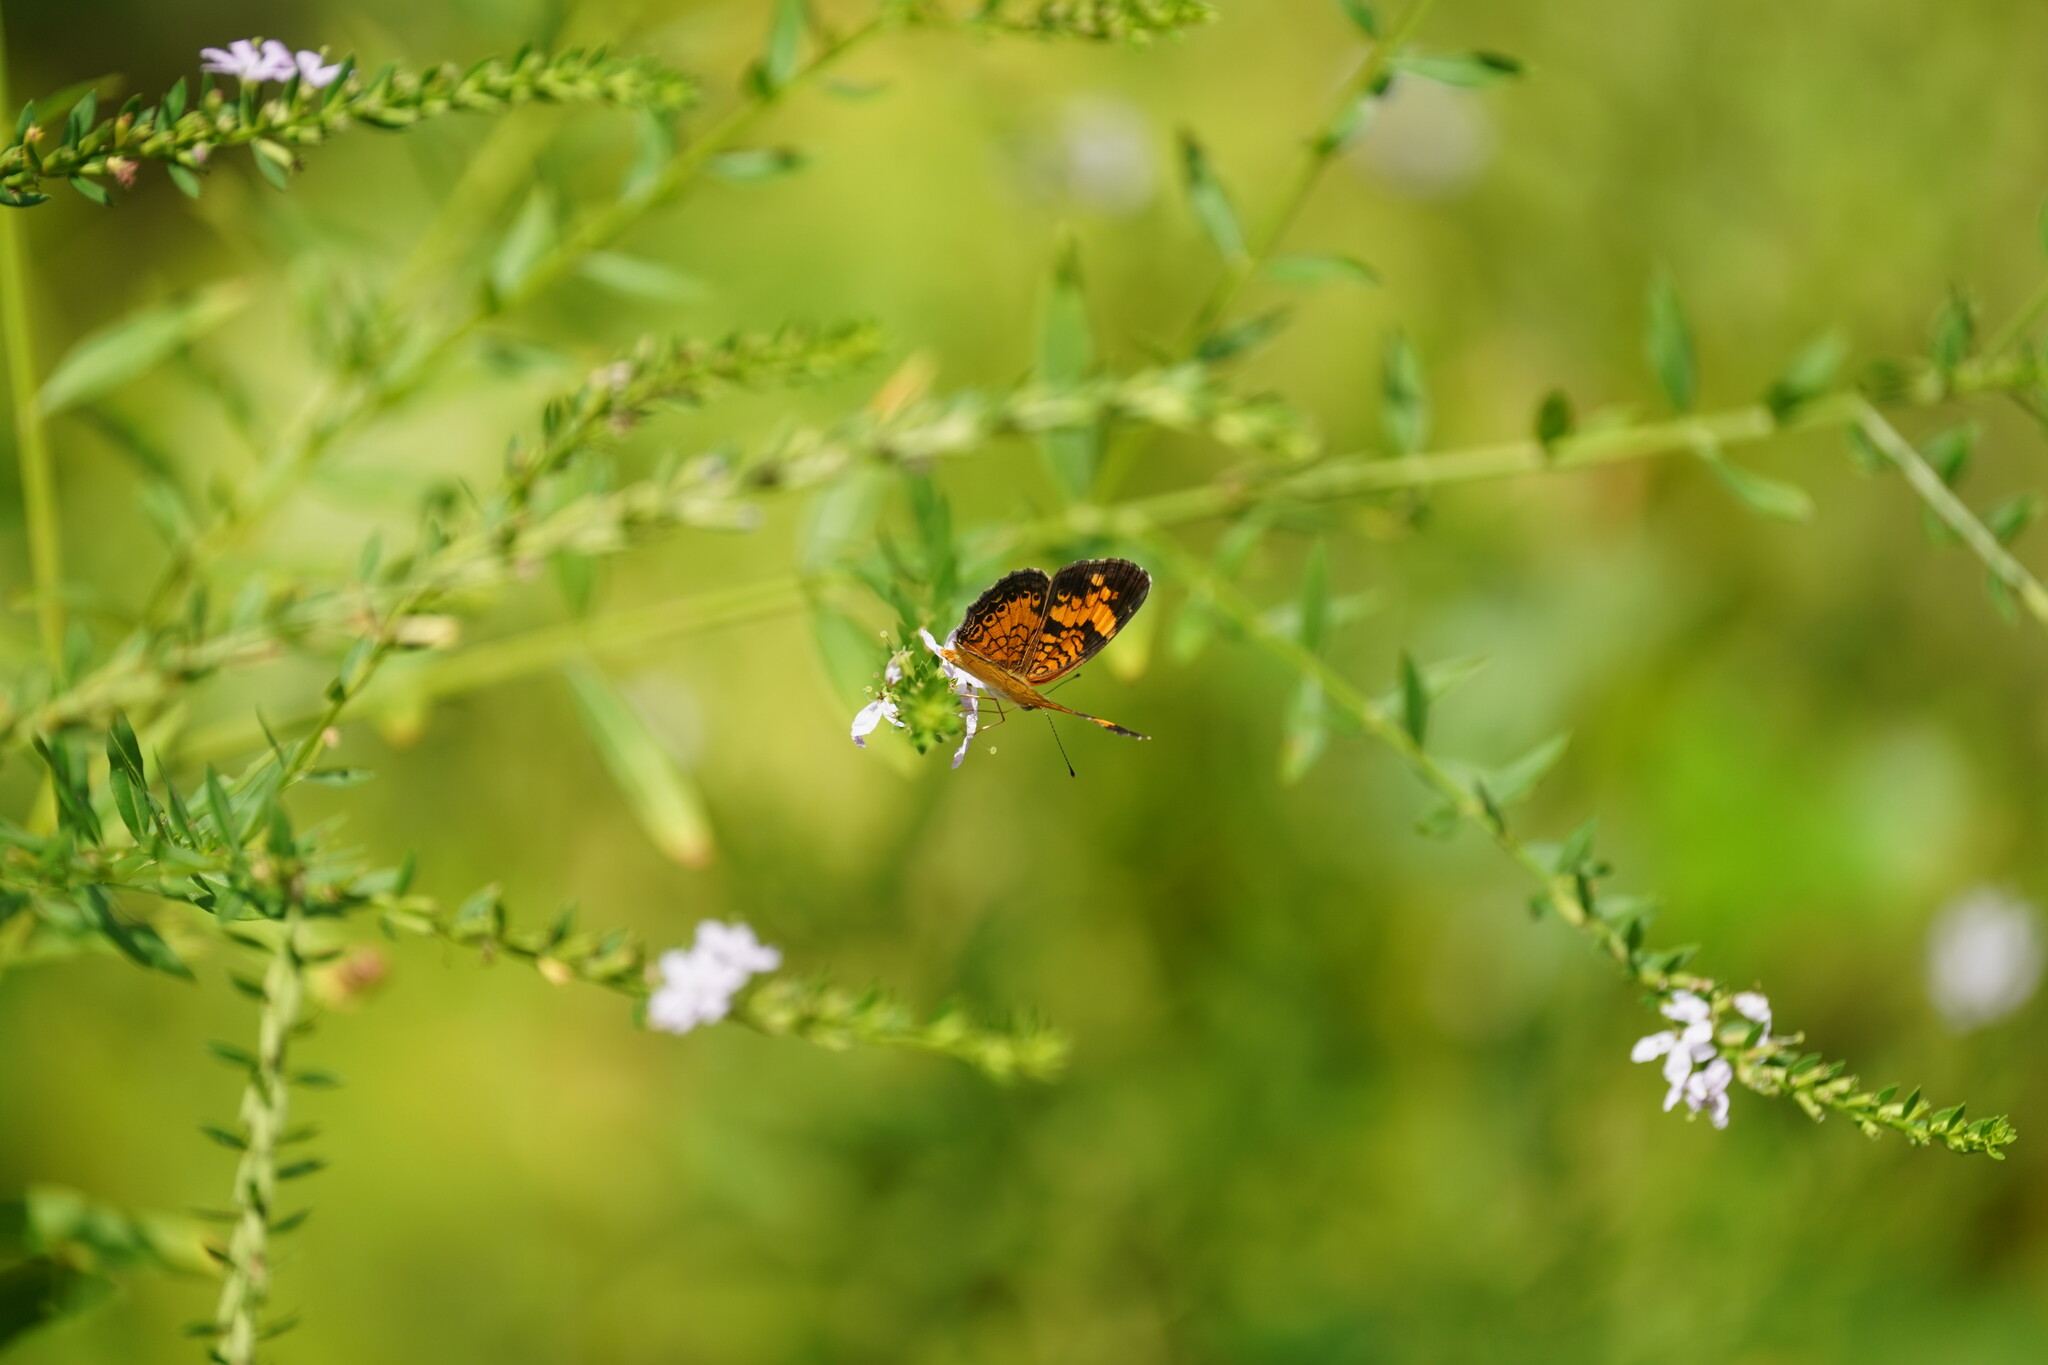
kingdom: Animalia
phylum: Arthropoda
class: Insecta
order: Lepidoptera
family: Nymphalidae
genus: Phyciodes
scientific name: Phyciodes tharos
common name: Pearl crescent
